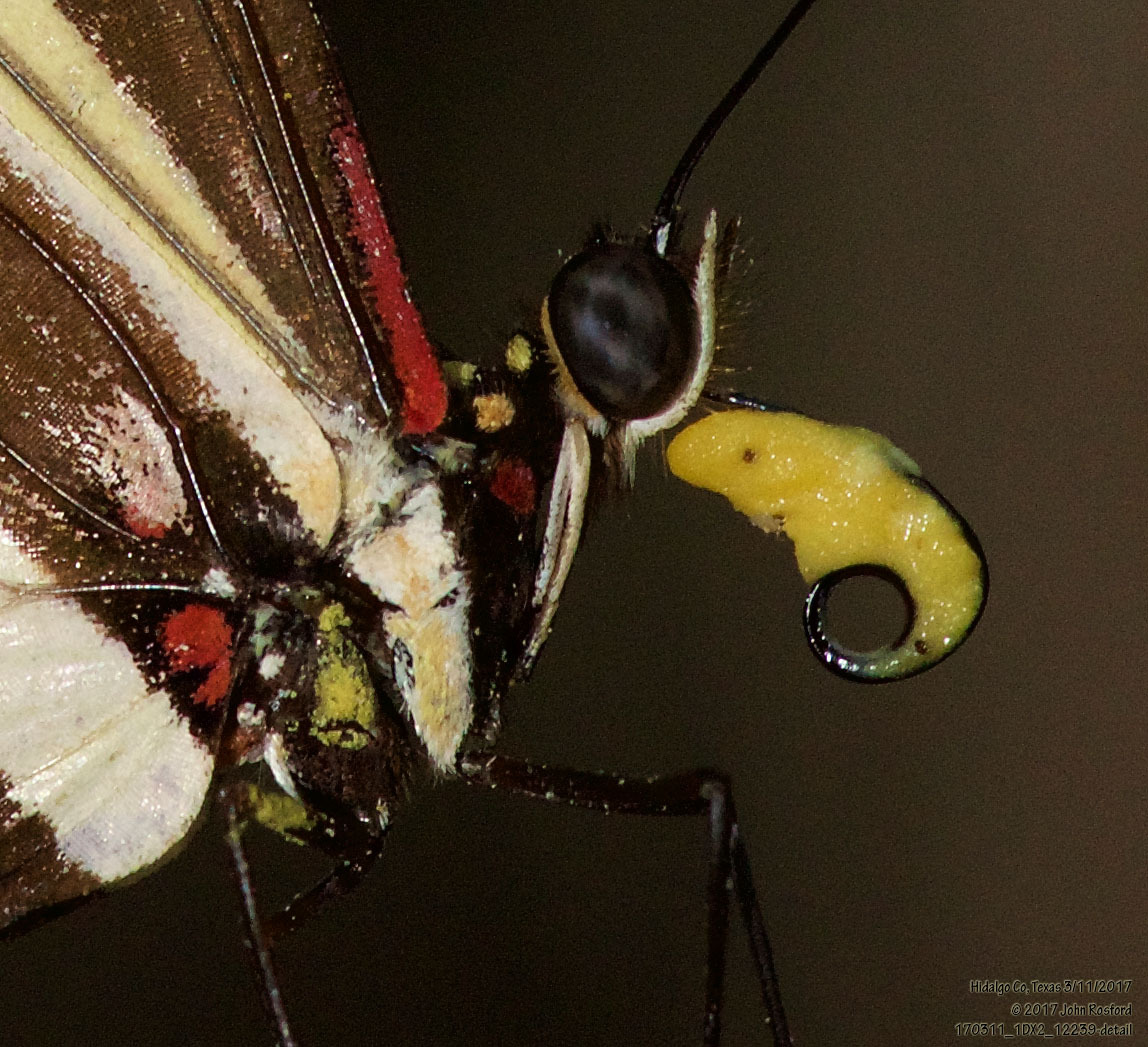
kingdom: Animalia
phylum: Arthropoda
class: Insecta
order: Lepidoptera
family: Nymphalidae
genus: Heliconius
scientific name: Heliconius charithonia
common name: Zebra long wing
